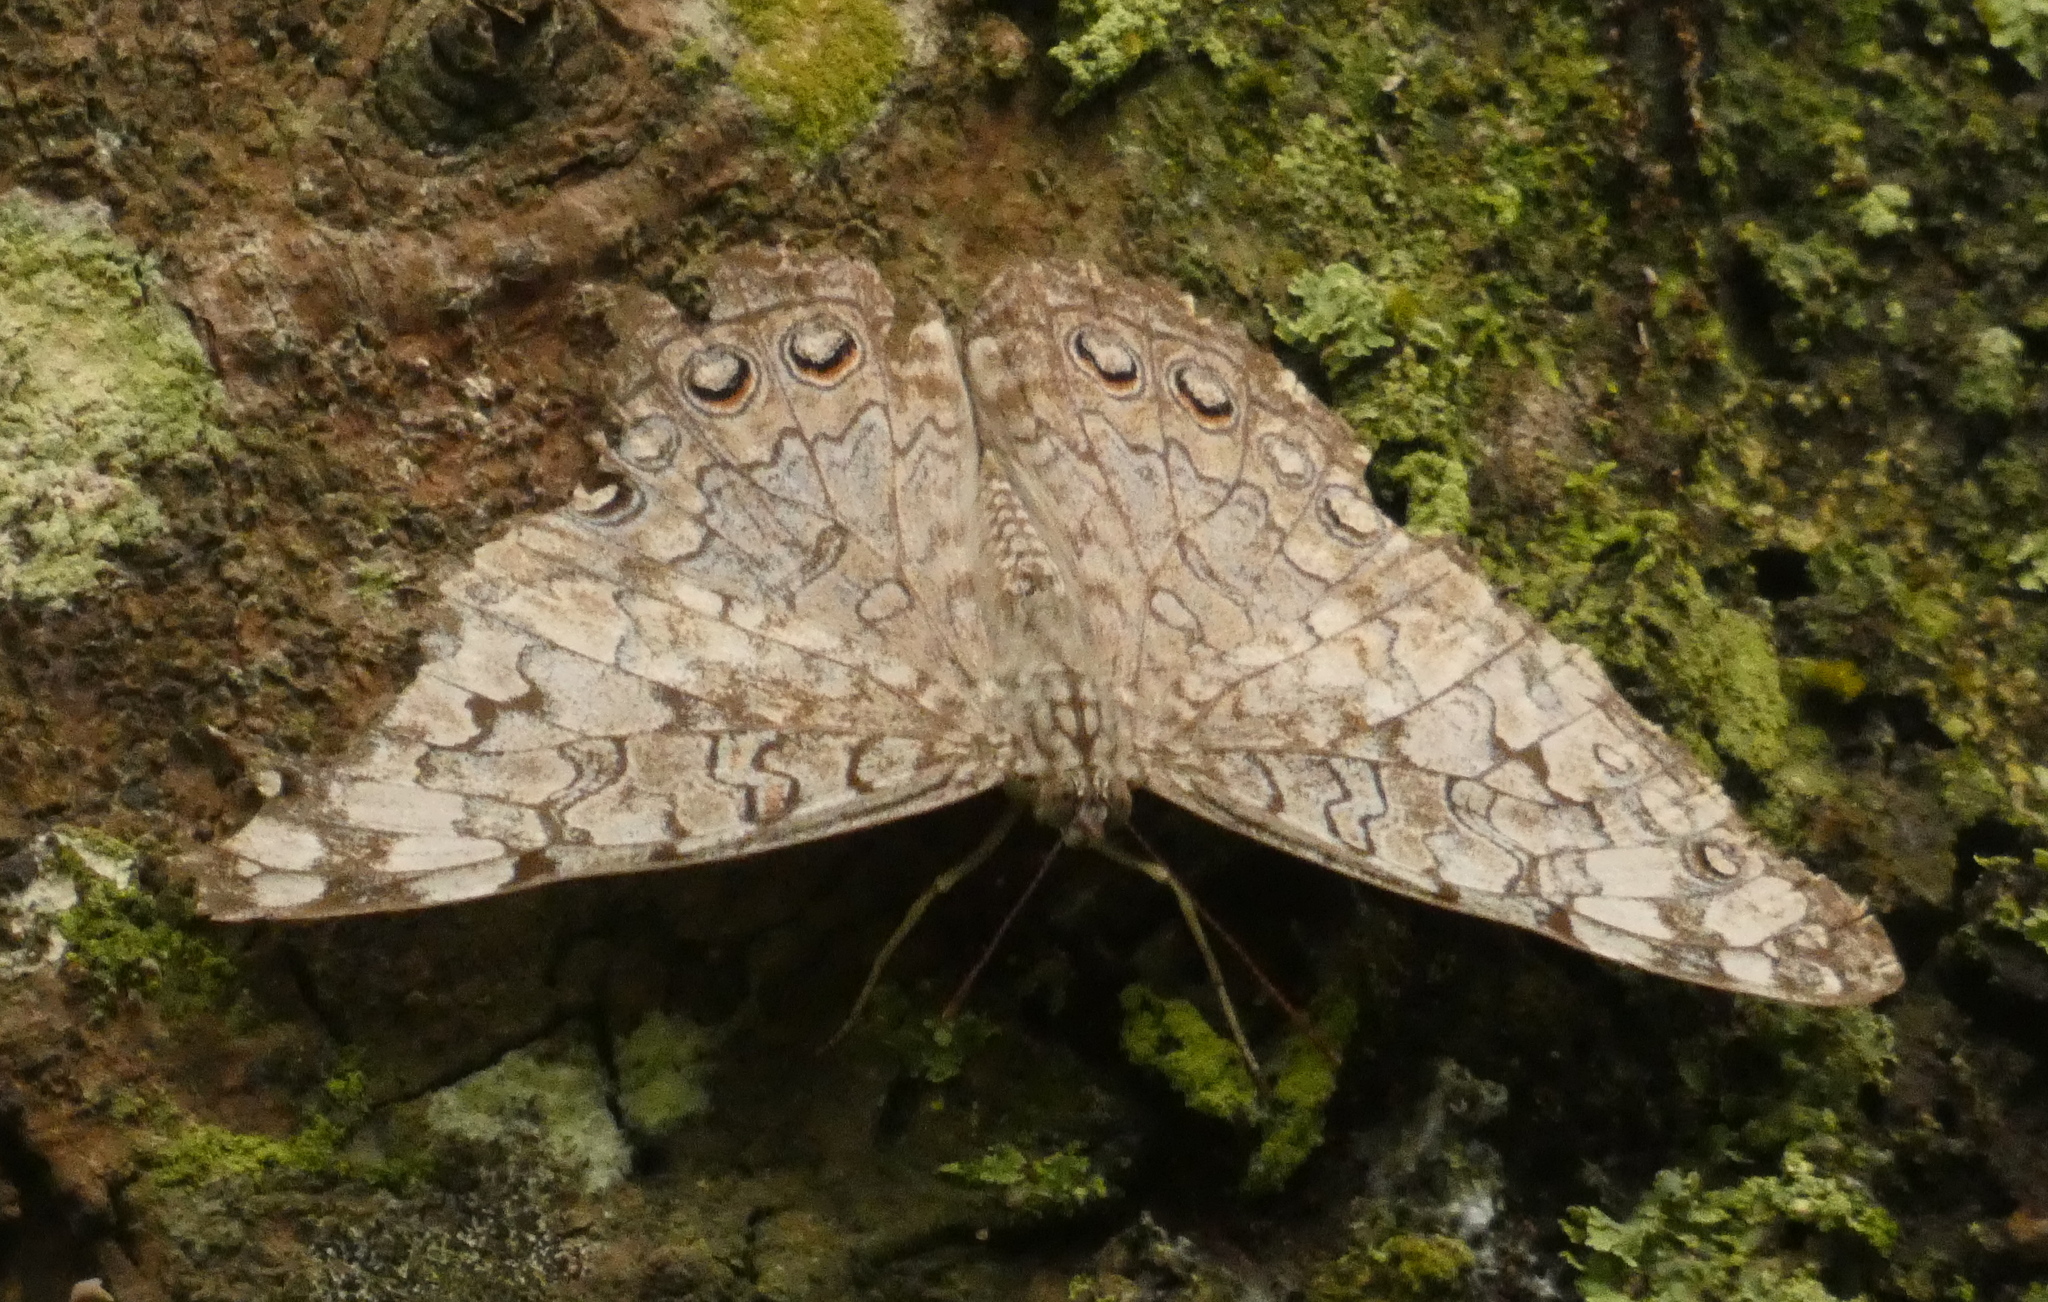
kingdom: Animalia
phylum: Arthropoda
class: Insecta
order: Lepidoptera
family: Nymphalidae
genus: Hamadryas
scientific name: Hamadryas februa
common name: Gray cracker
